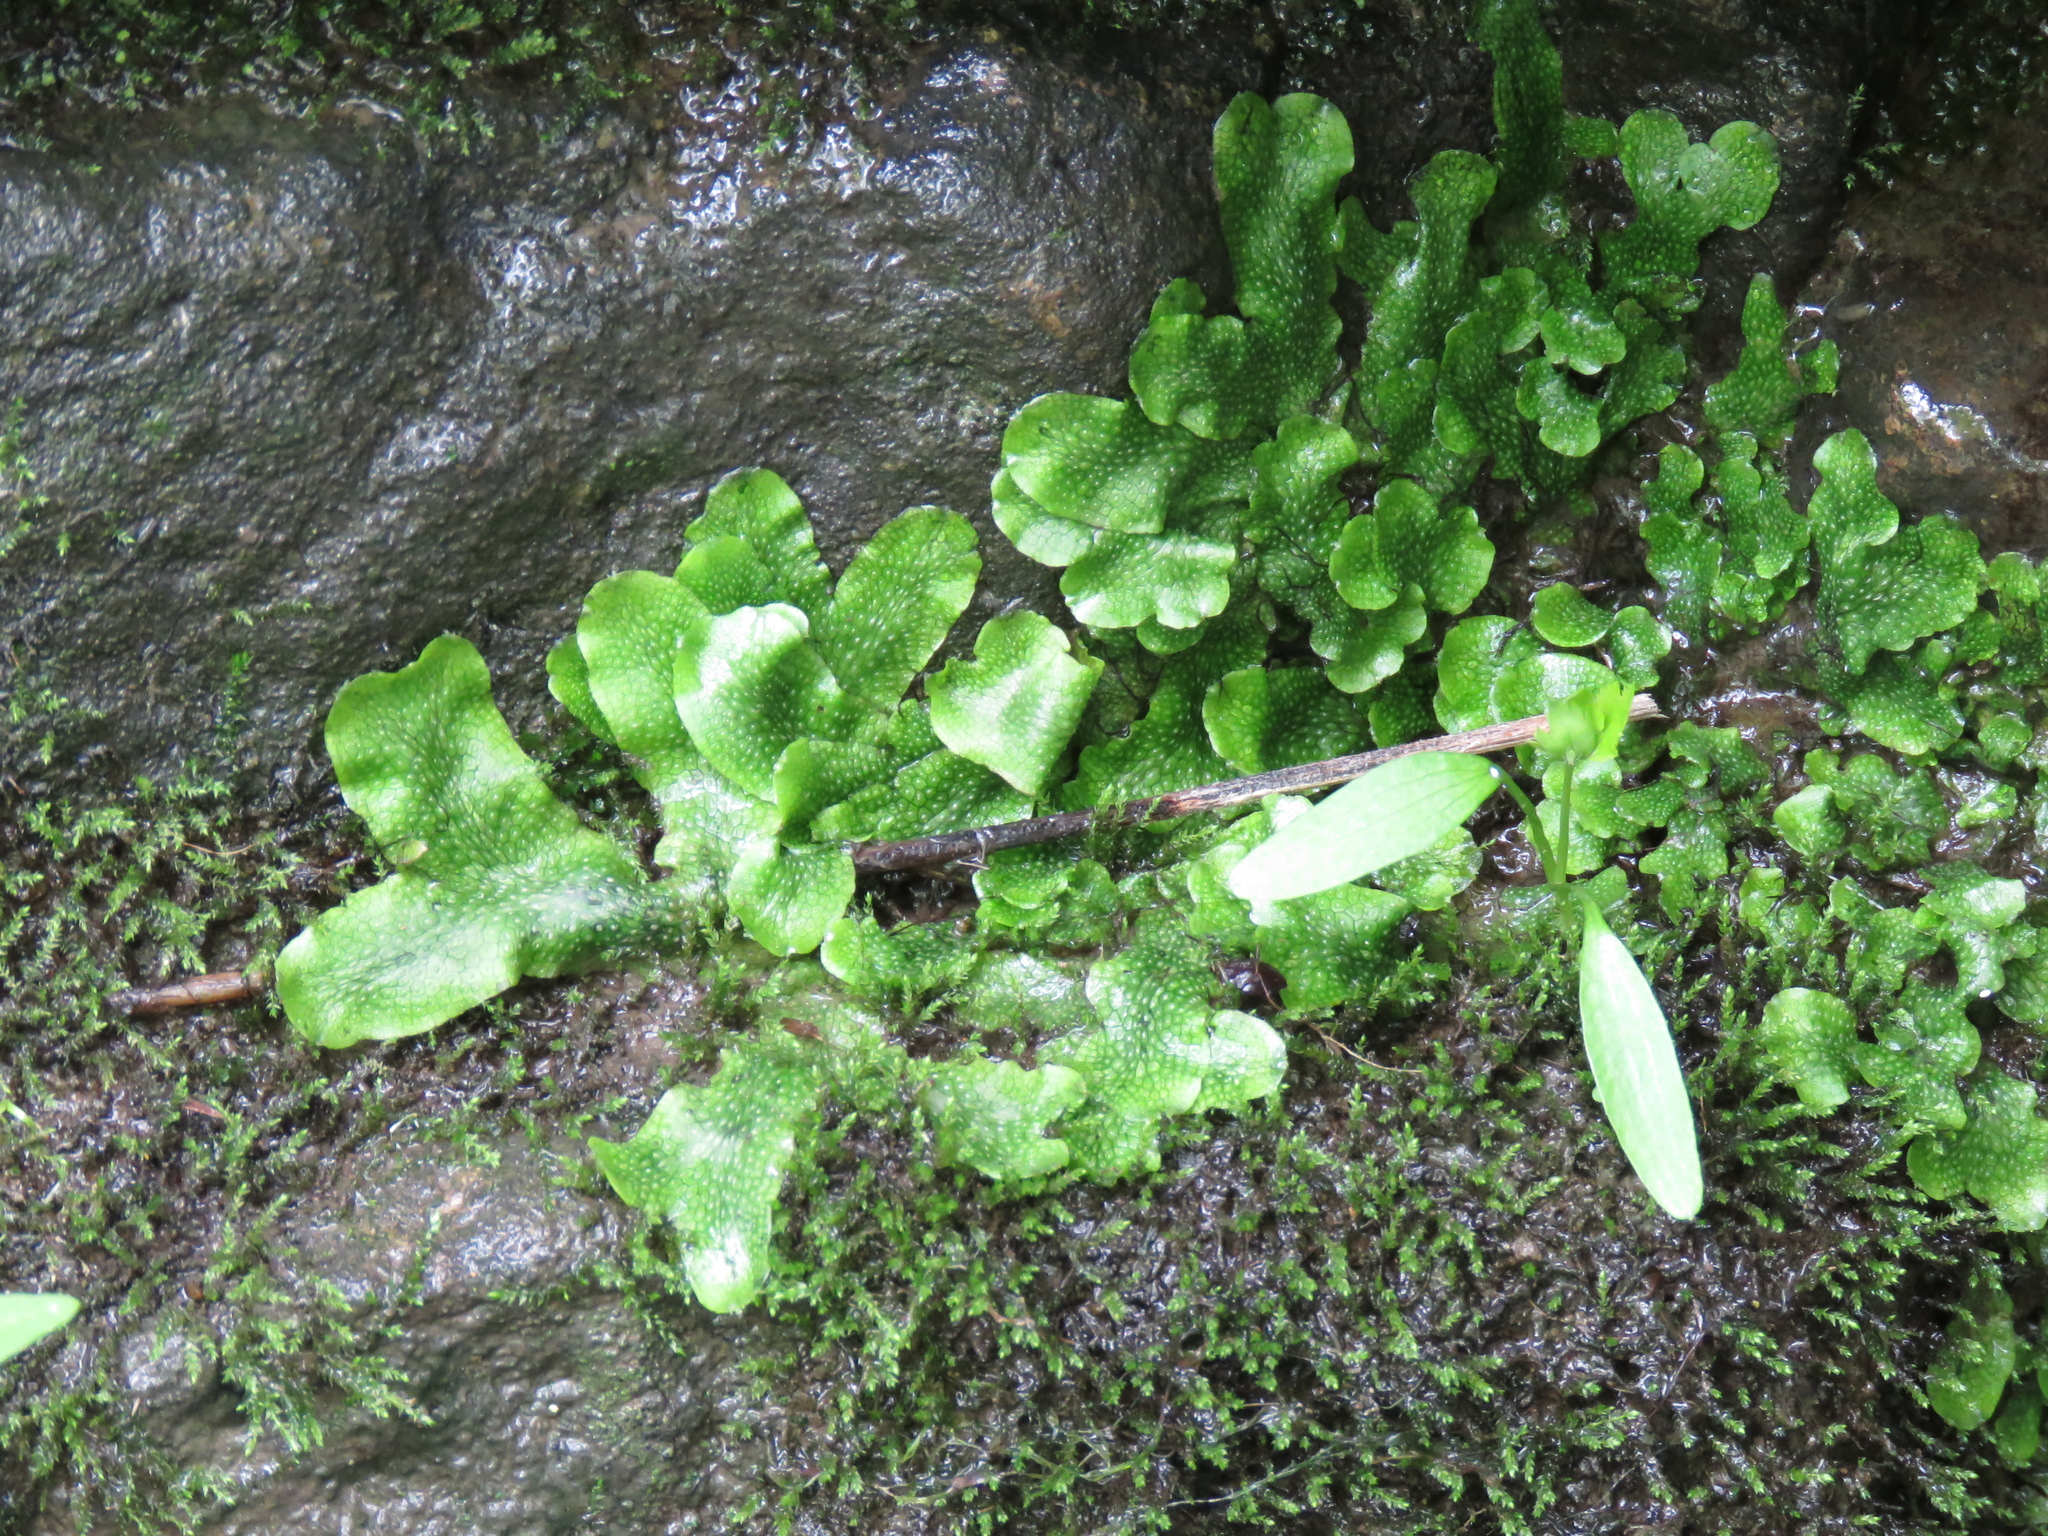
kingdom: Plantae
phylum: Marchantiophyta
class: Marchantiopsida
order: Marchantiales
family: Conocephalaceae
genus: Conocephalum
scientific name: Conocephalum salebrosum
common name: Cat-tongue liverwort
